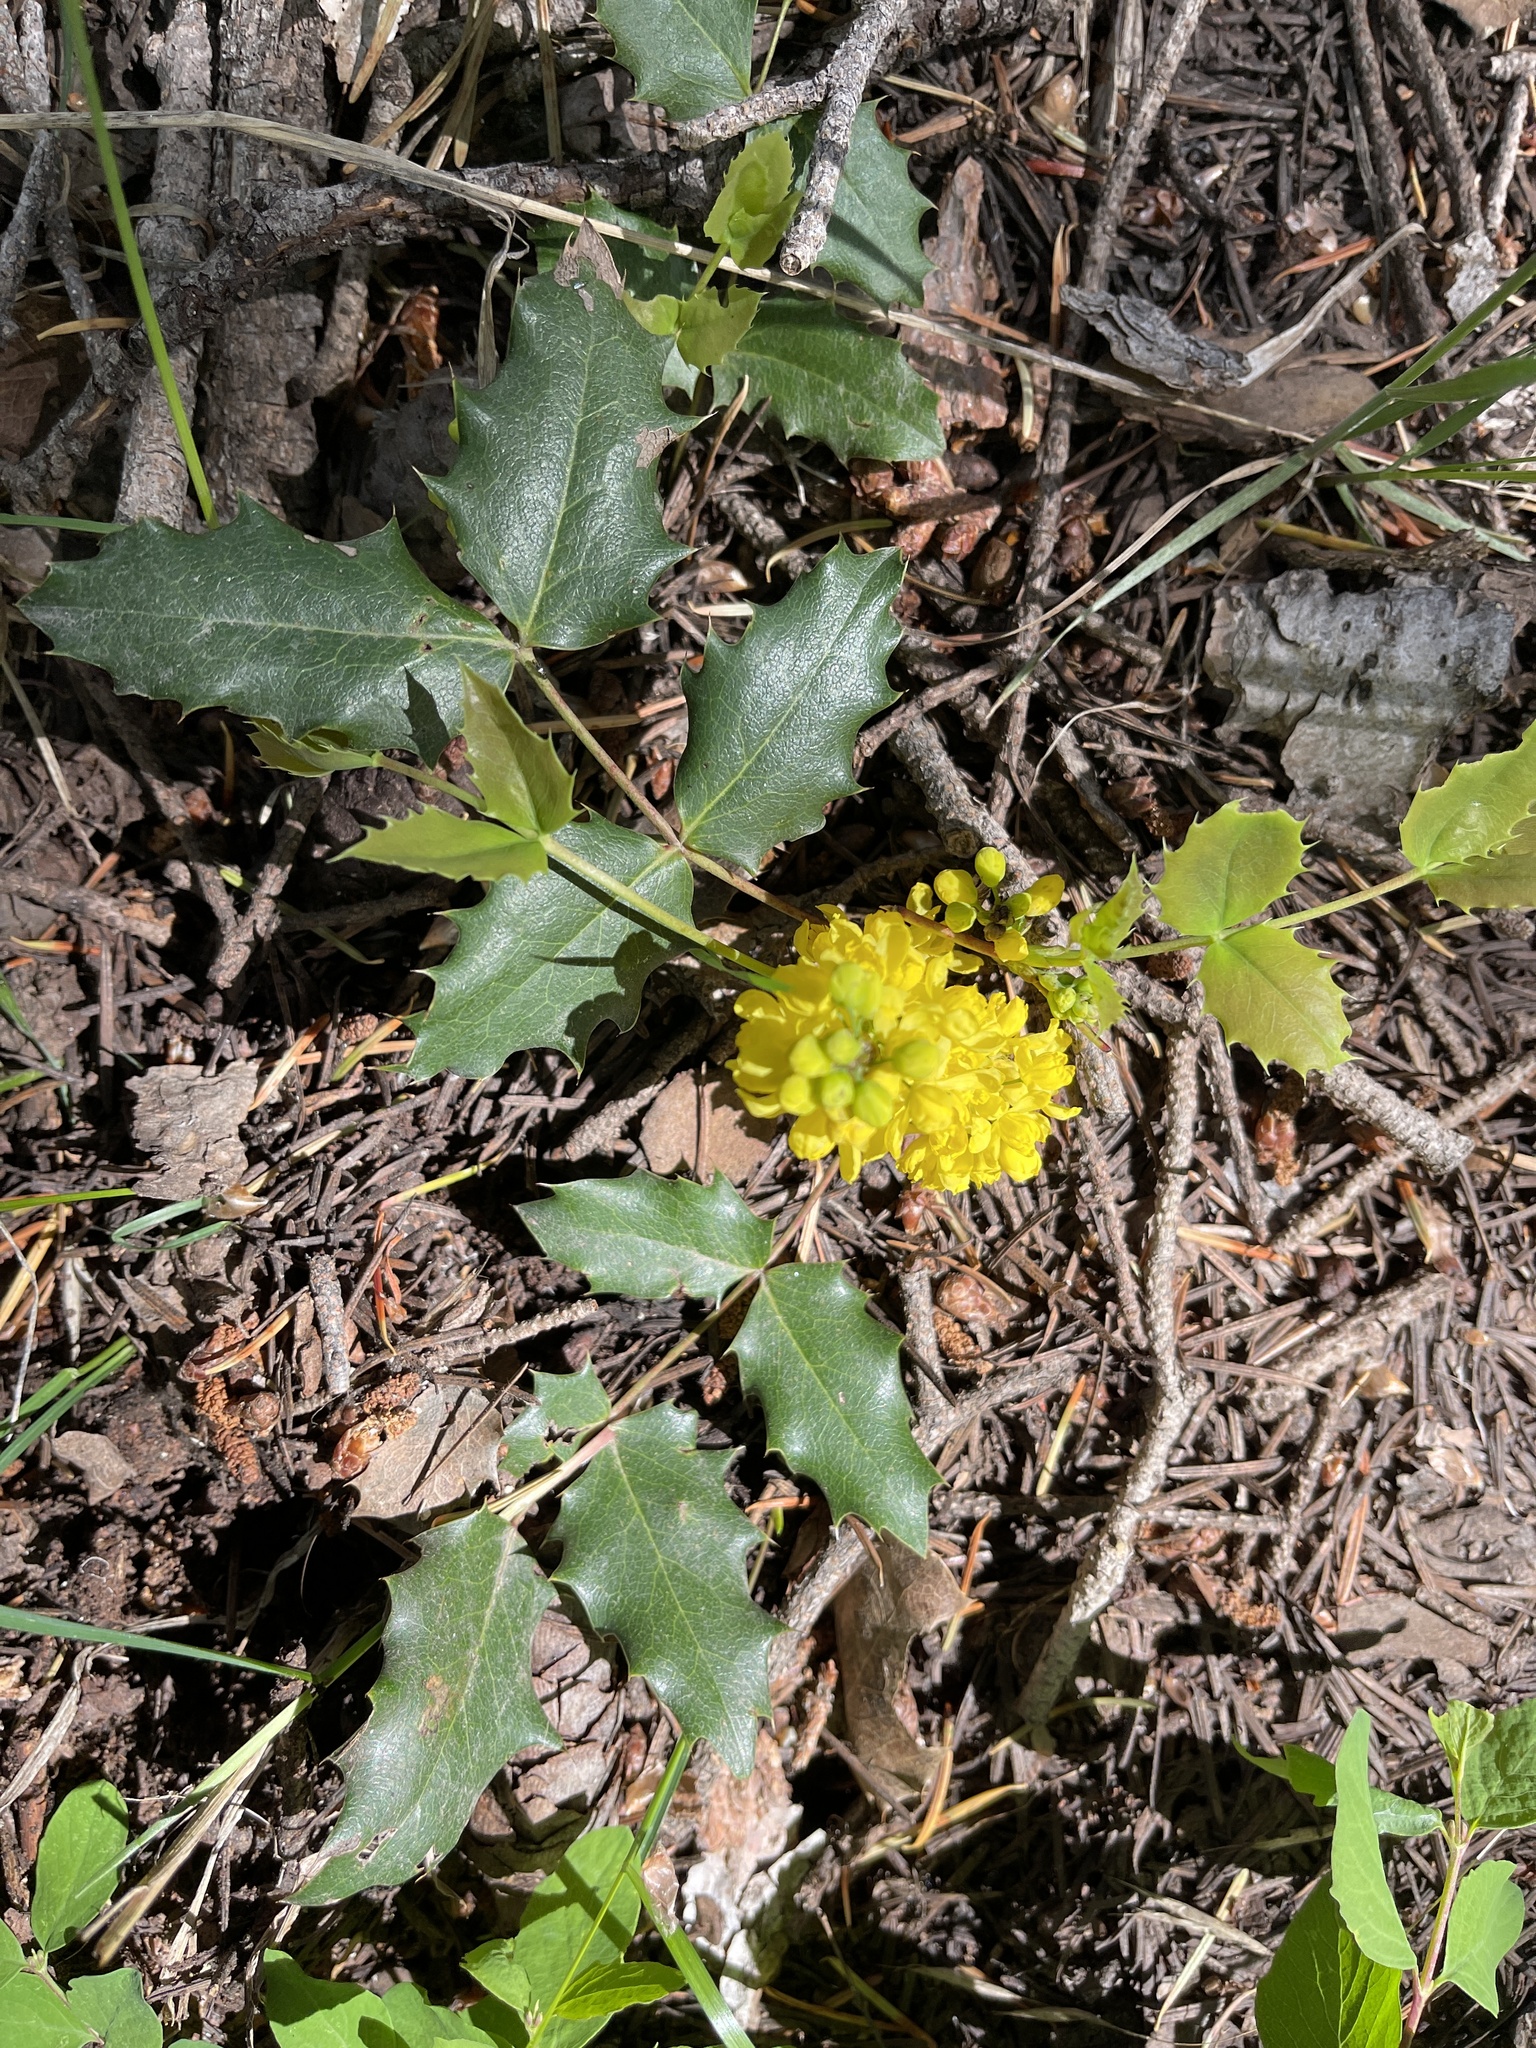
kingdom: Plantae
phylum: Tracheophyta
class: Magnoliopsida
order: Ranunculales
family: Berberidaceae
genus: Mahonia
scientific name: Mahonia repens
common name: Creeping oregon-grape
